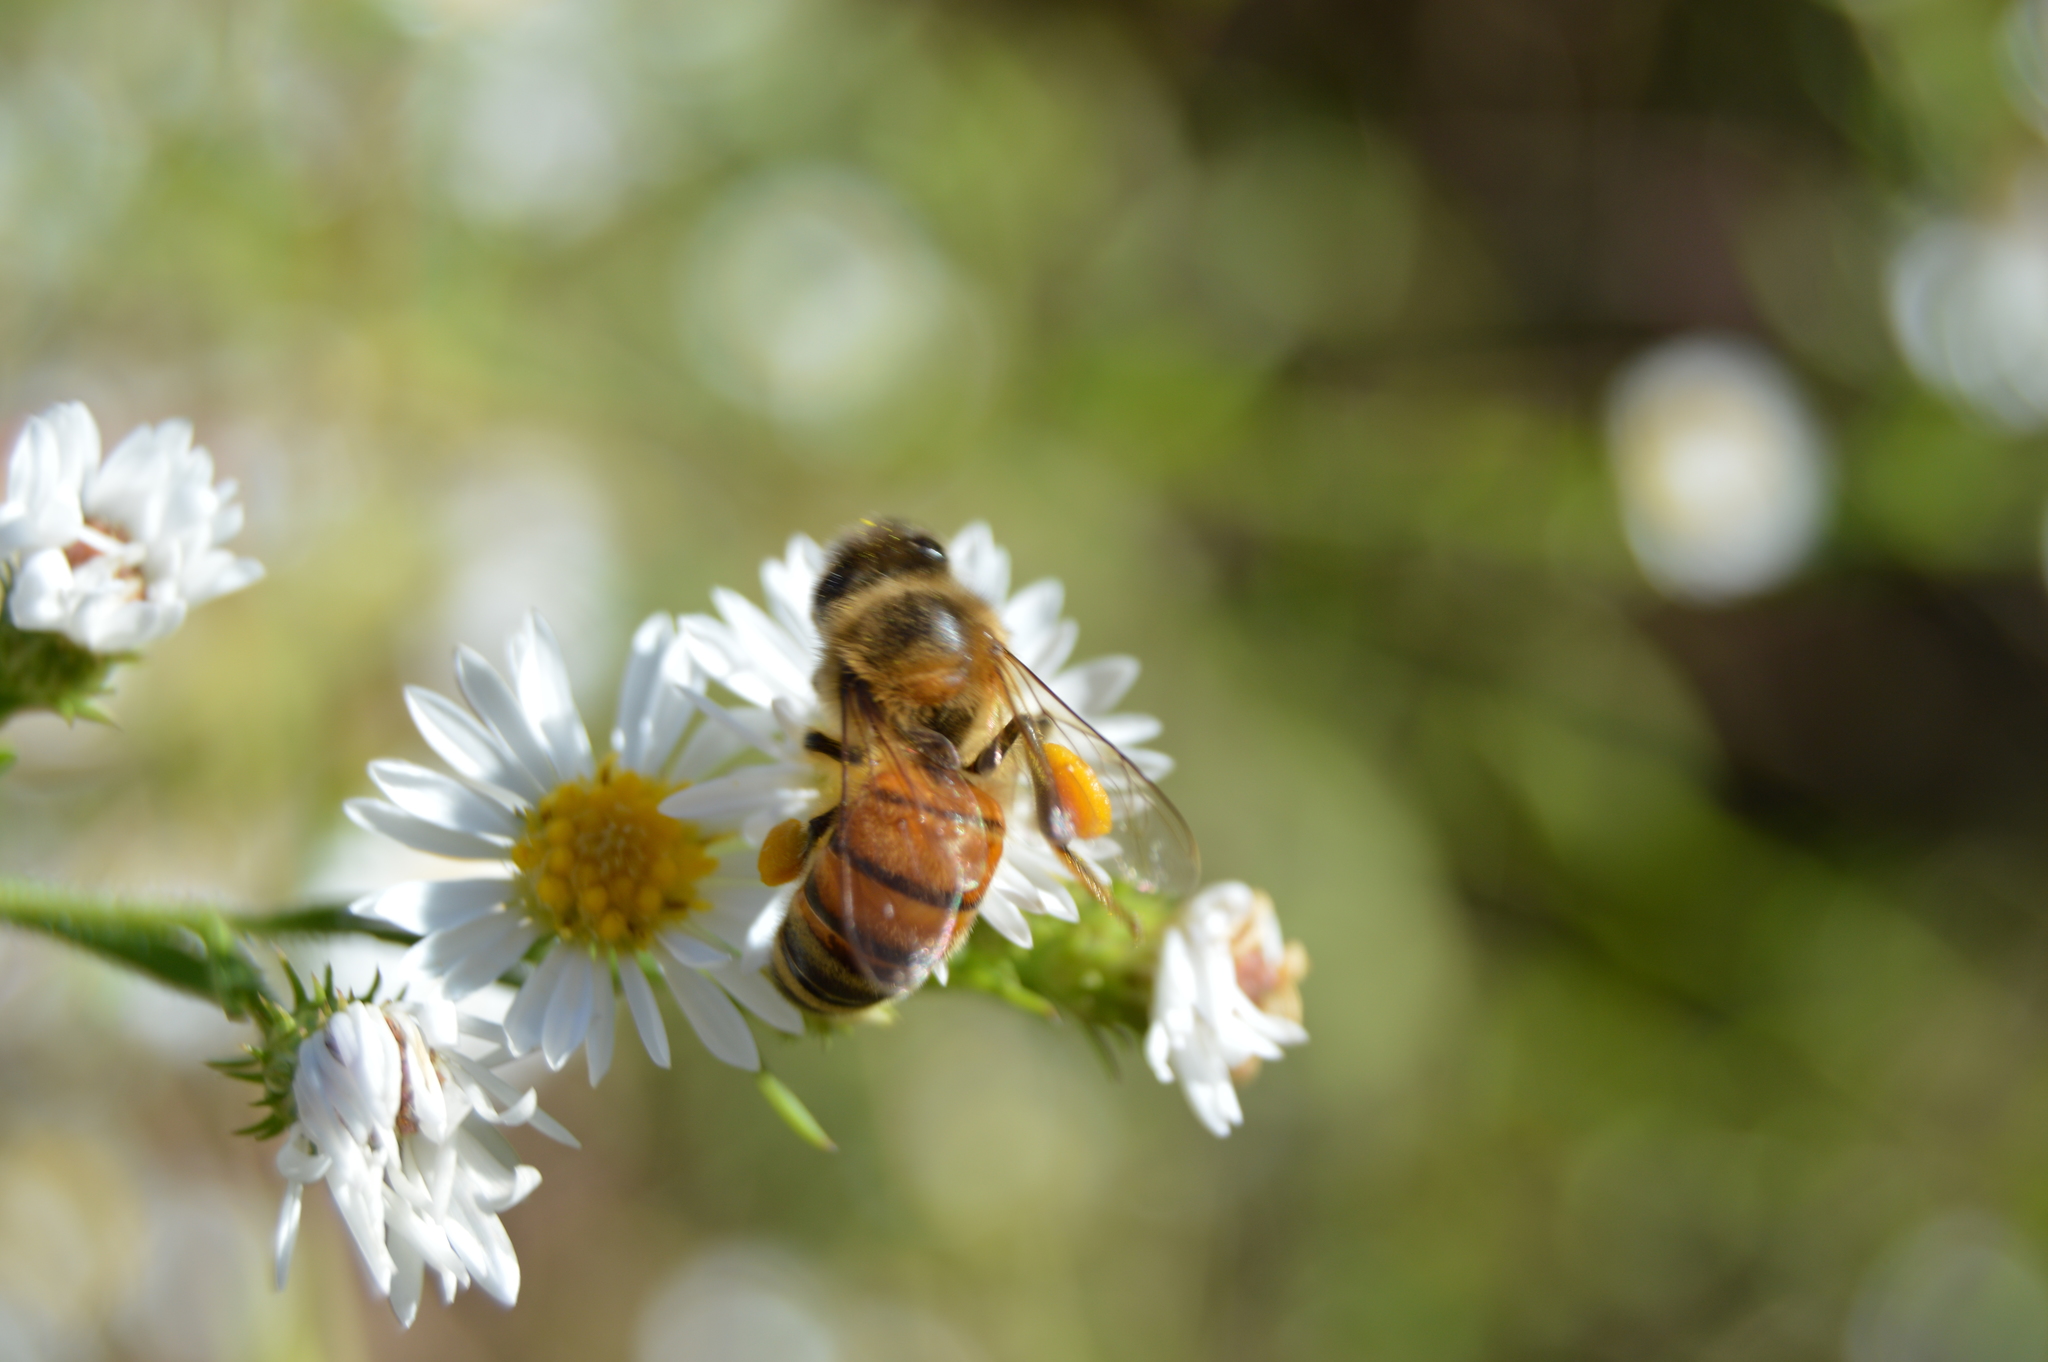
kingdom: Animalia
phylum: Arthropoda
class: Insecta
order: Hymenoptera
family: Apidae
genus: Apis
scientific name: Apis mellifera
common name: Honey bee
